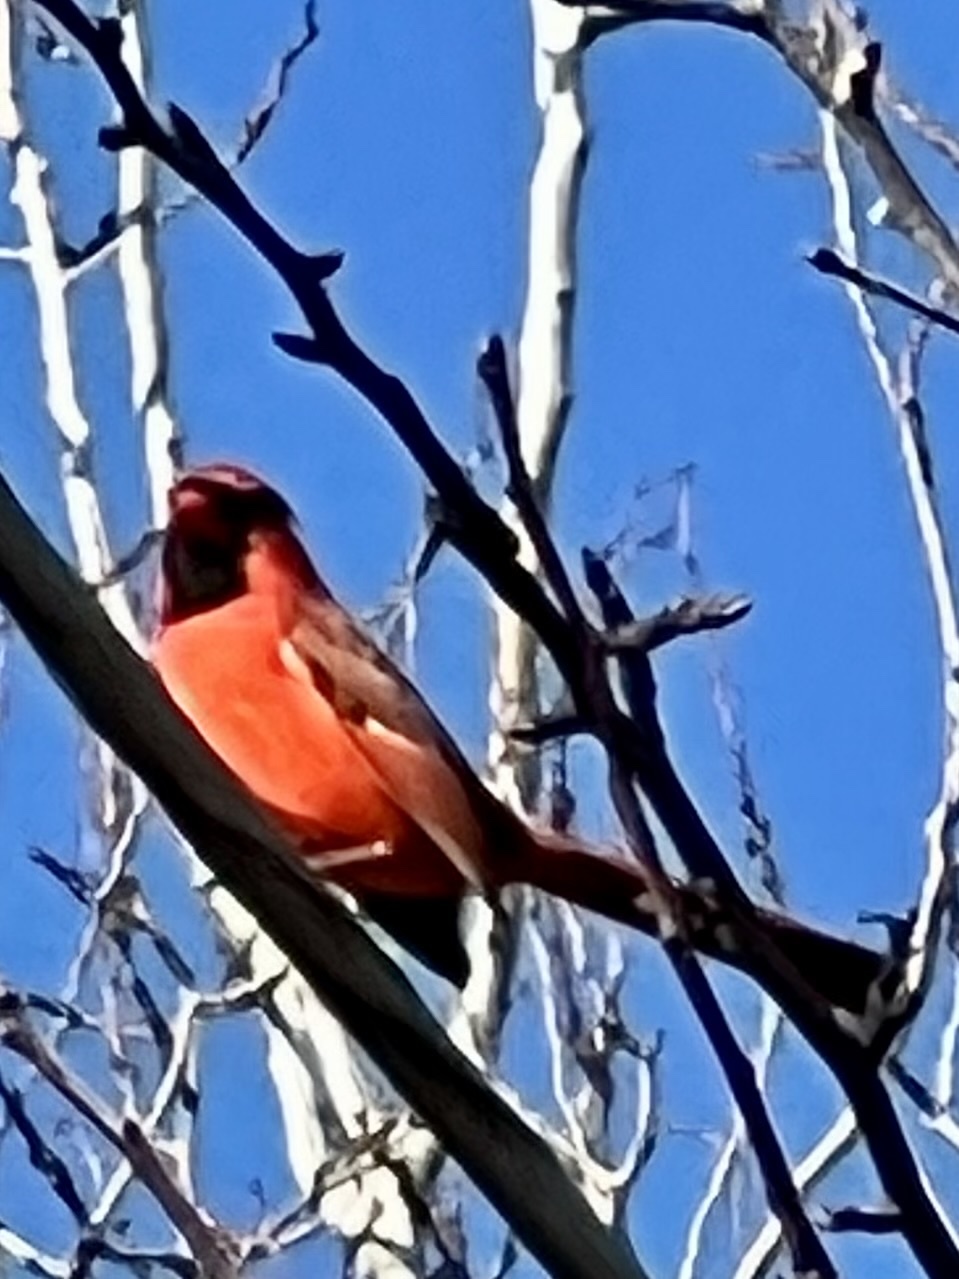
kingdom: Animalia
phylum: Chordata
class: Aves
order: Passeriformes
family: Cardinalidae
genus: Cardinalis
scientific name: Cardinalis cardinalis
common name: Northern cardinal
